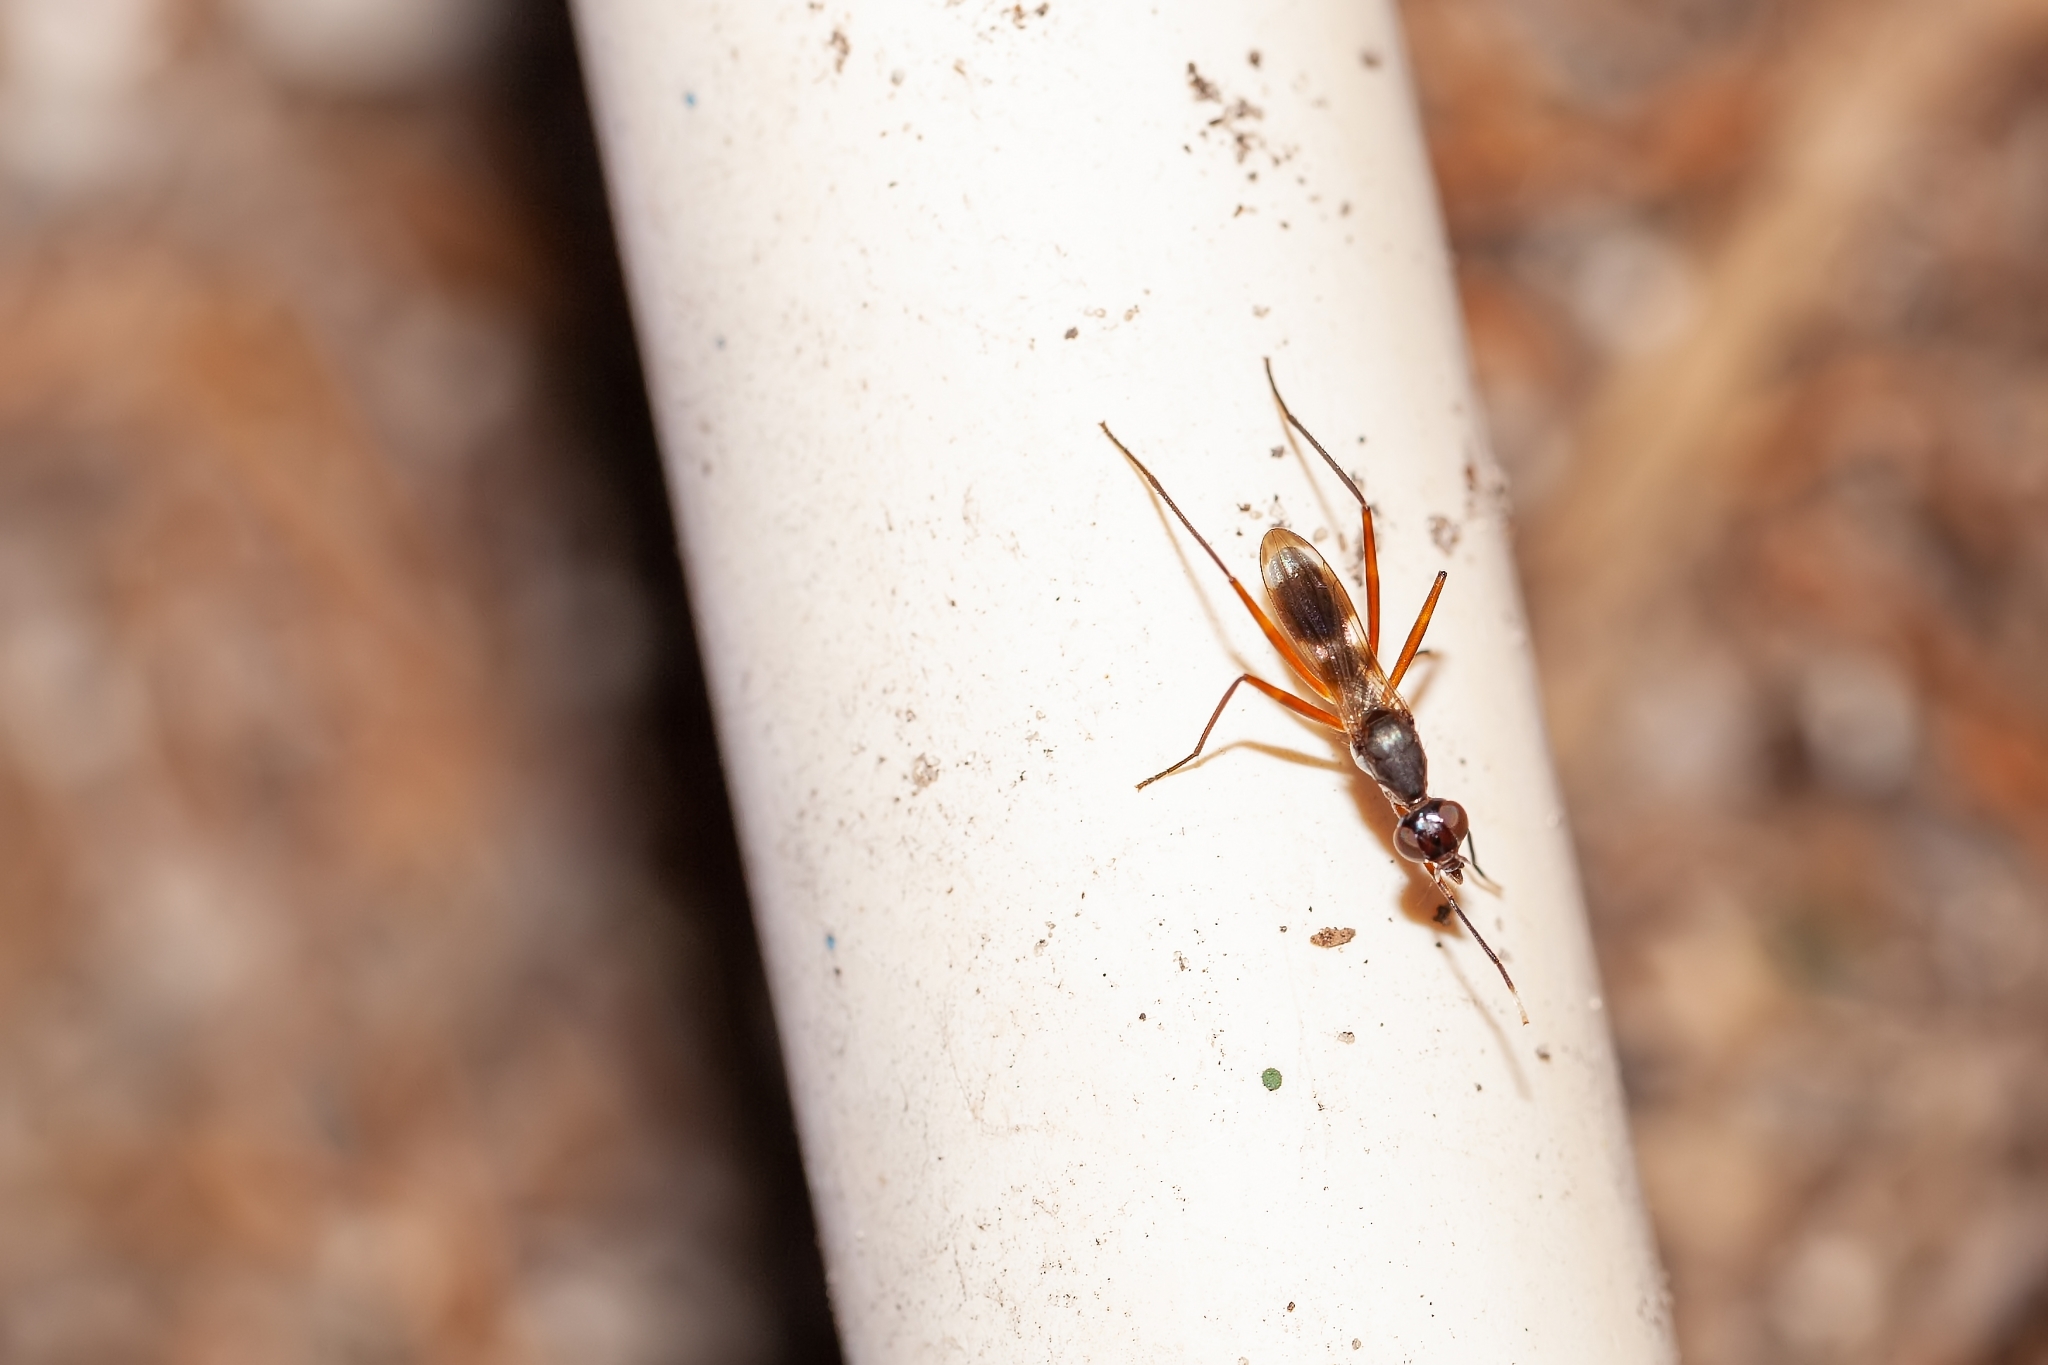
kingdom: Animalia
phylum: Arthropoda
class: Insecta
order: Diptera
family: Micropezidae
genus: Taeniaptera
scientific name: Taeniaptera trivittata
